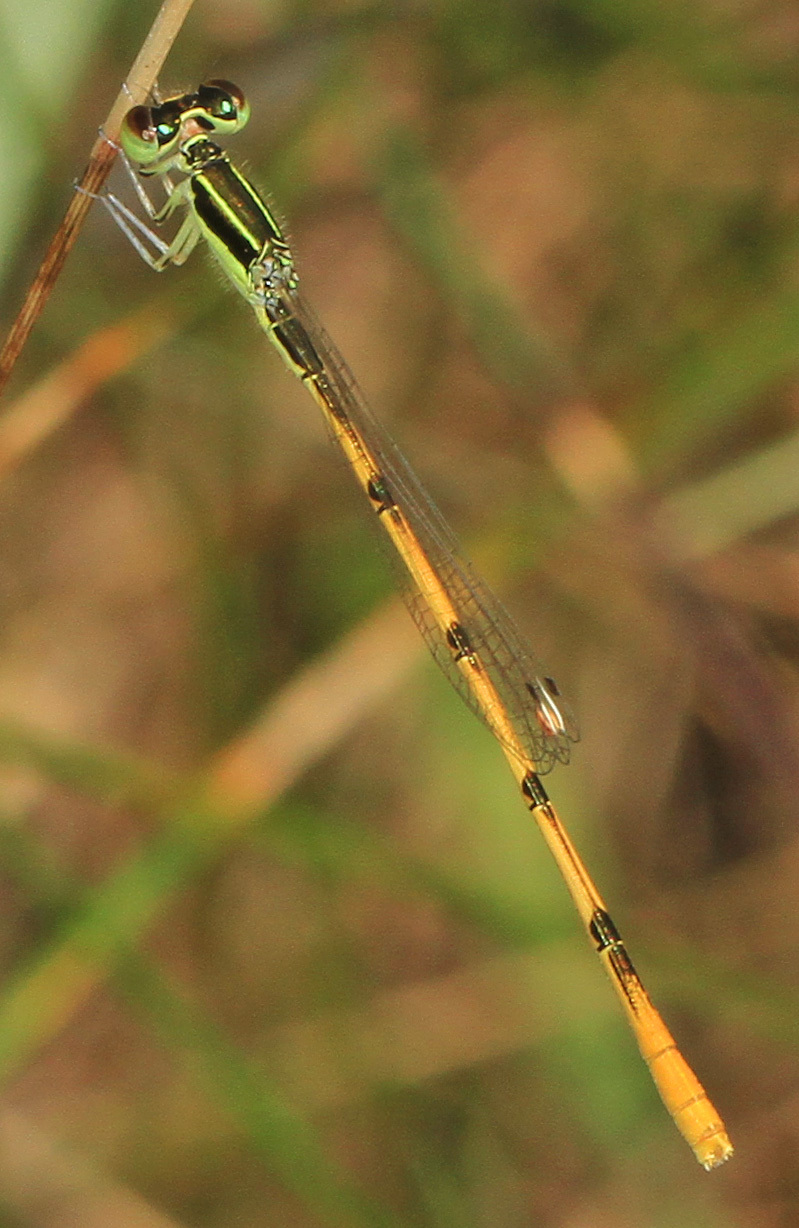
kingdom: Animalia
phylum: Arthropoda
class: Insecta
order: Odonata
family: Coenagrionidae
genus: Ischnura
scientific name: Ischnura hastata
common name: Citrine forktail
